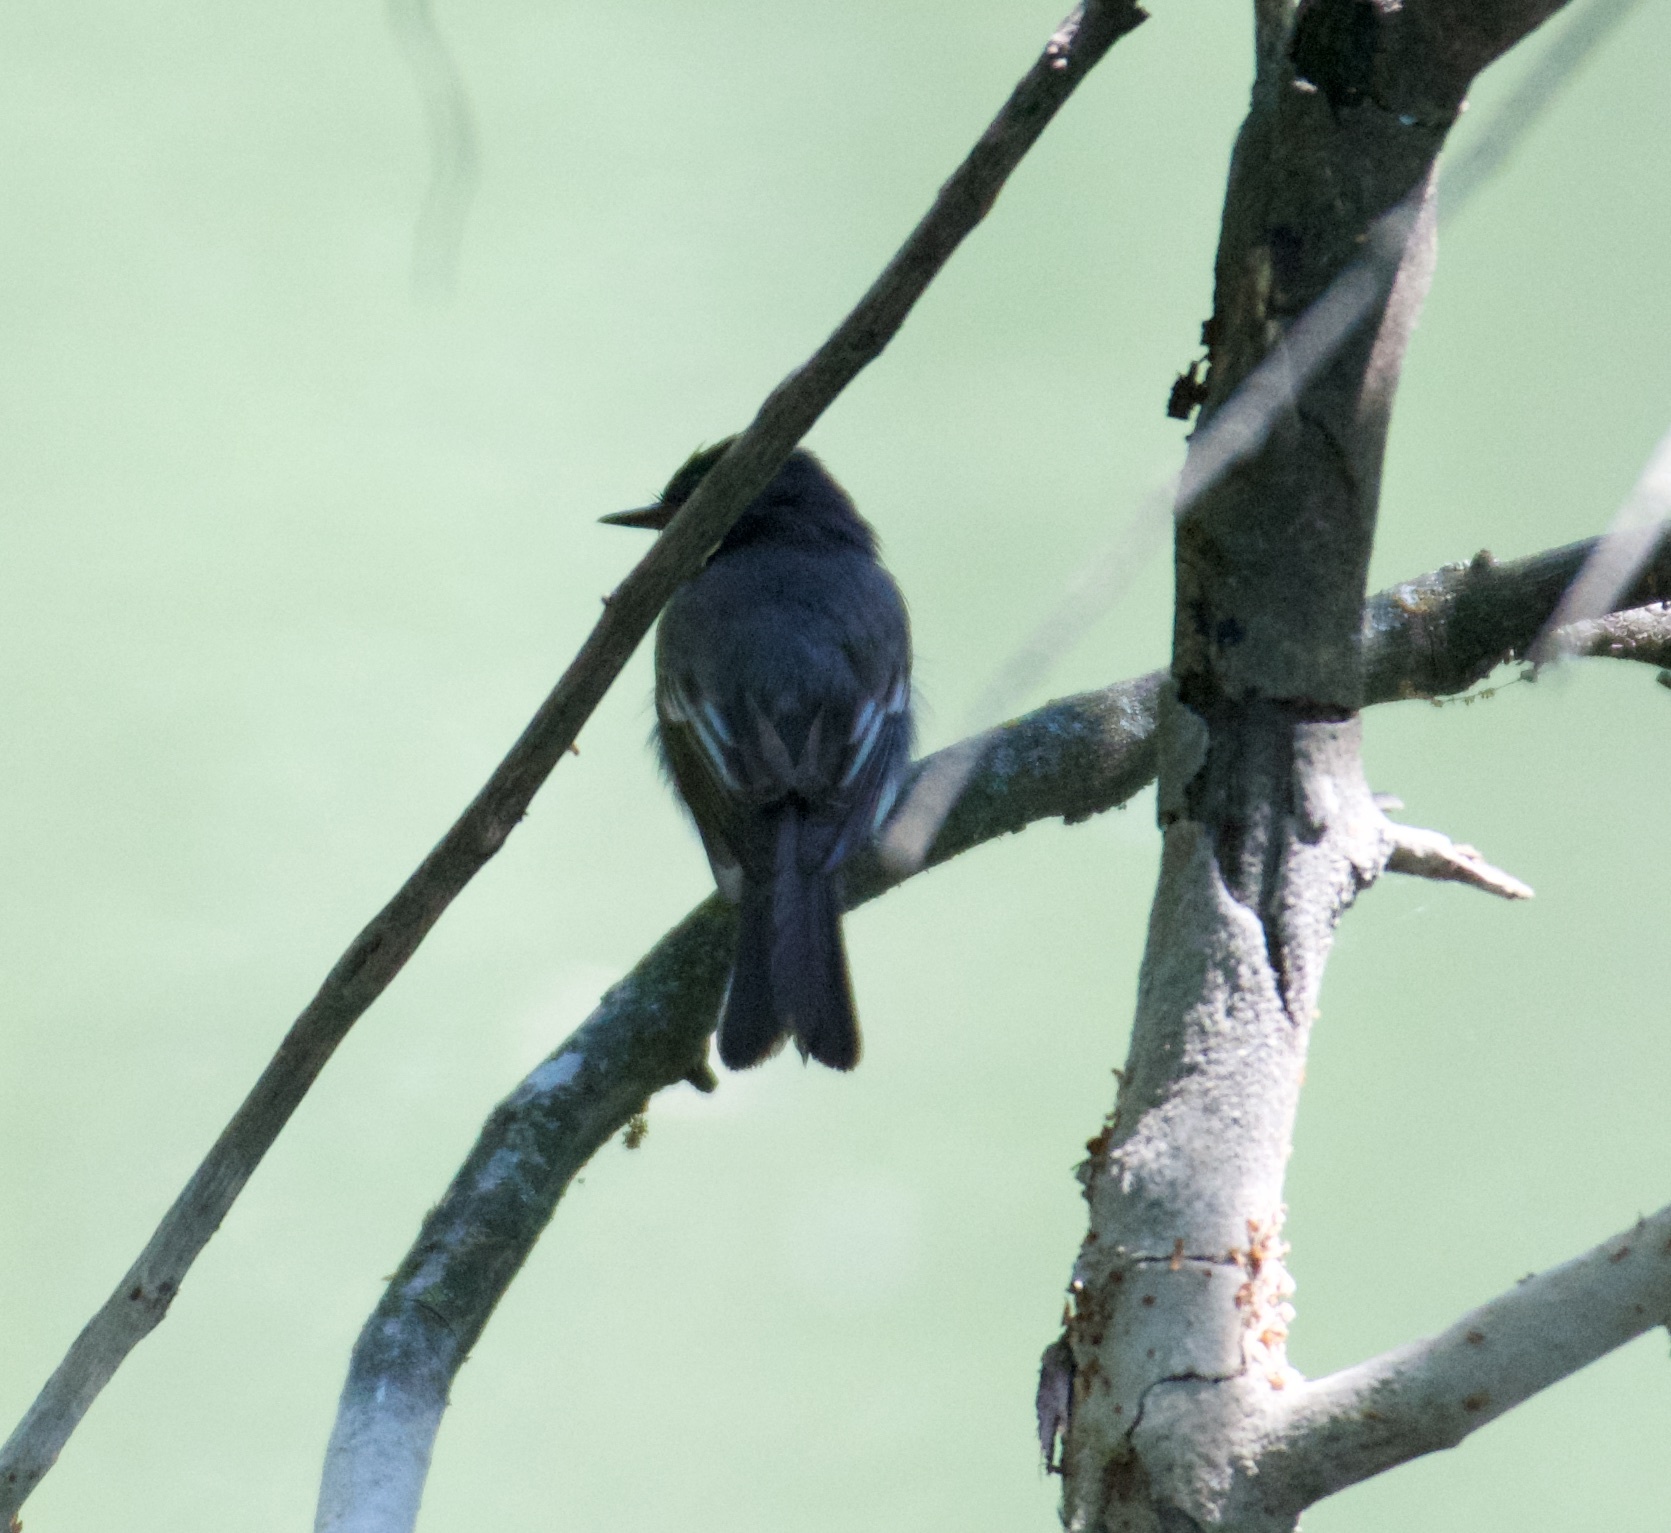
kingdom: Animalia
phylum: Chordata
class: Aves
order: Passeriformes
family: Tyrannidae
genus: Sayornis
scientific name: Sayornis nigricans
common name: Black phoebe
